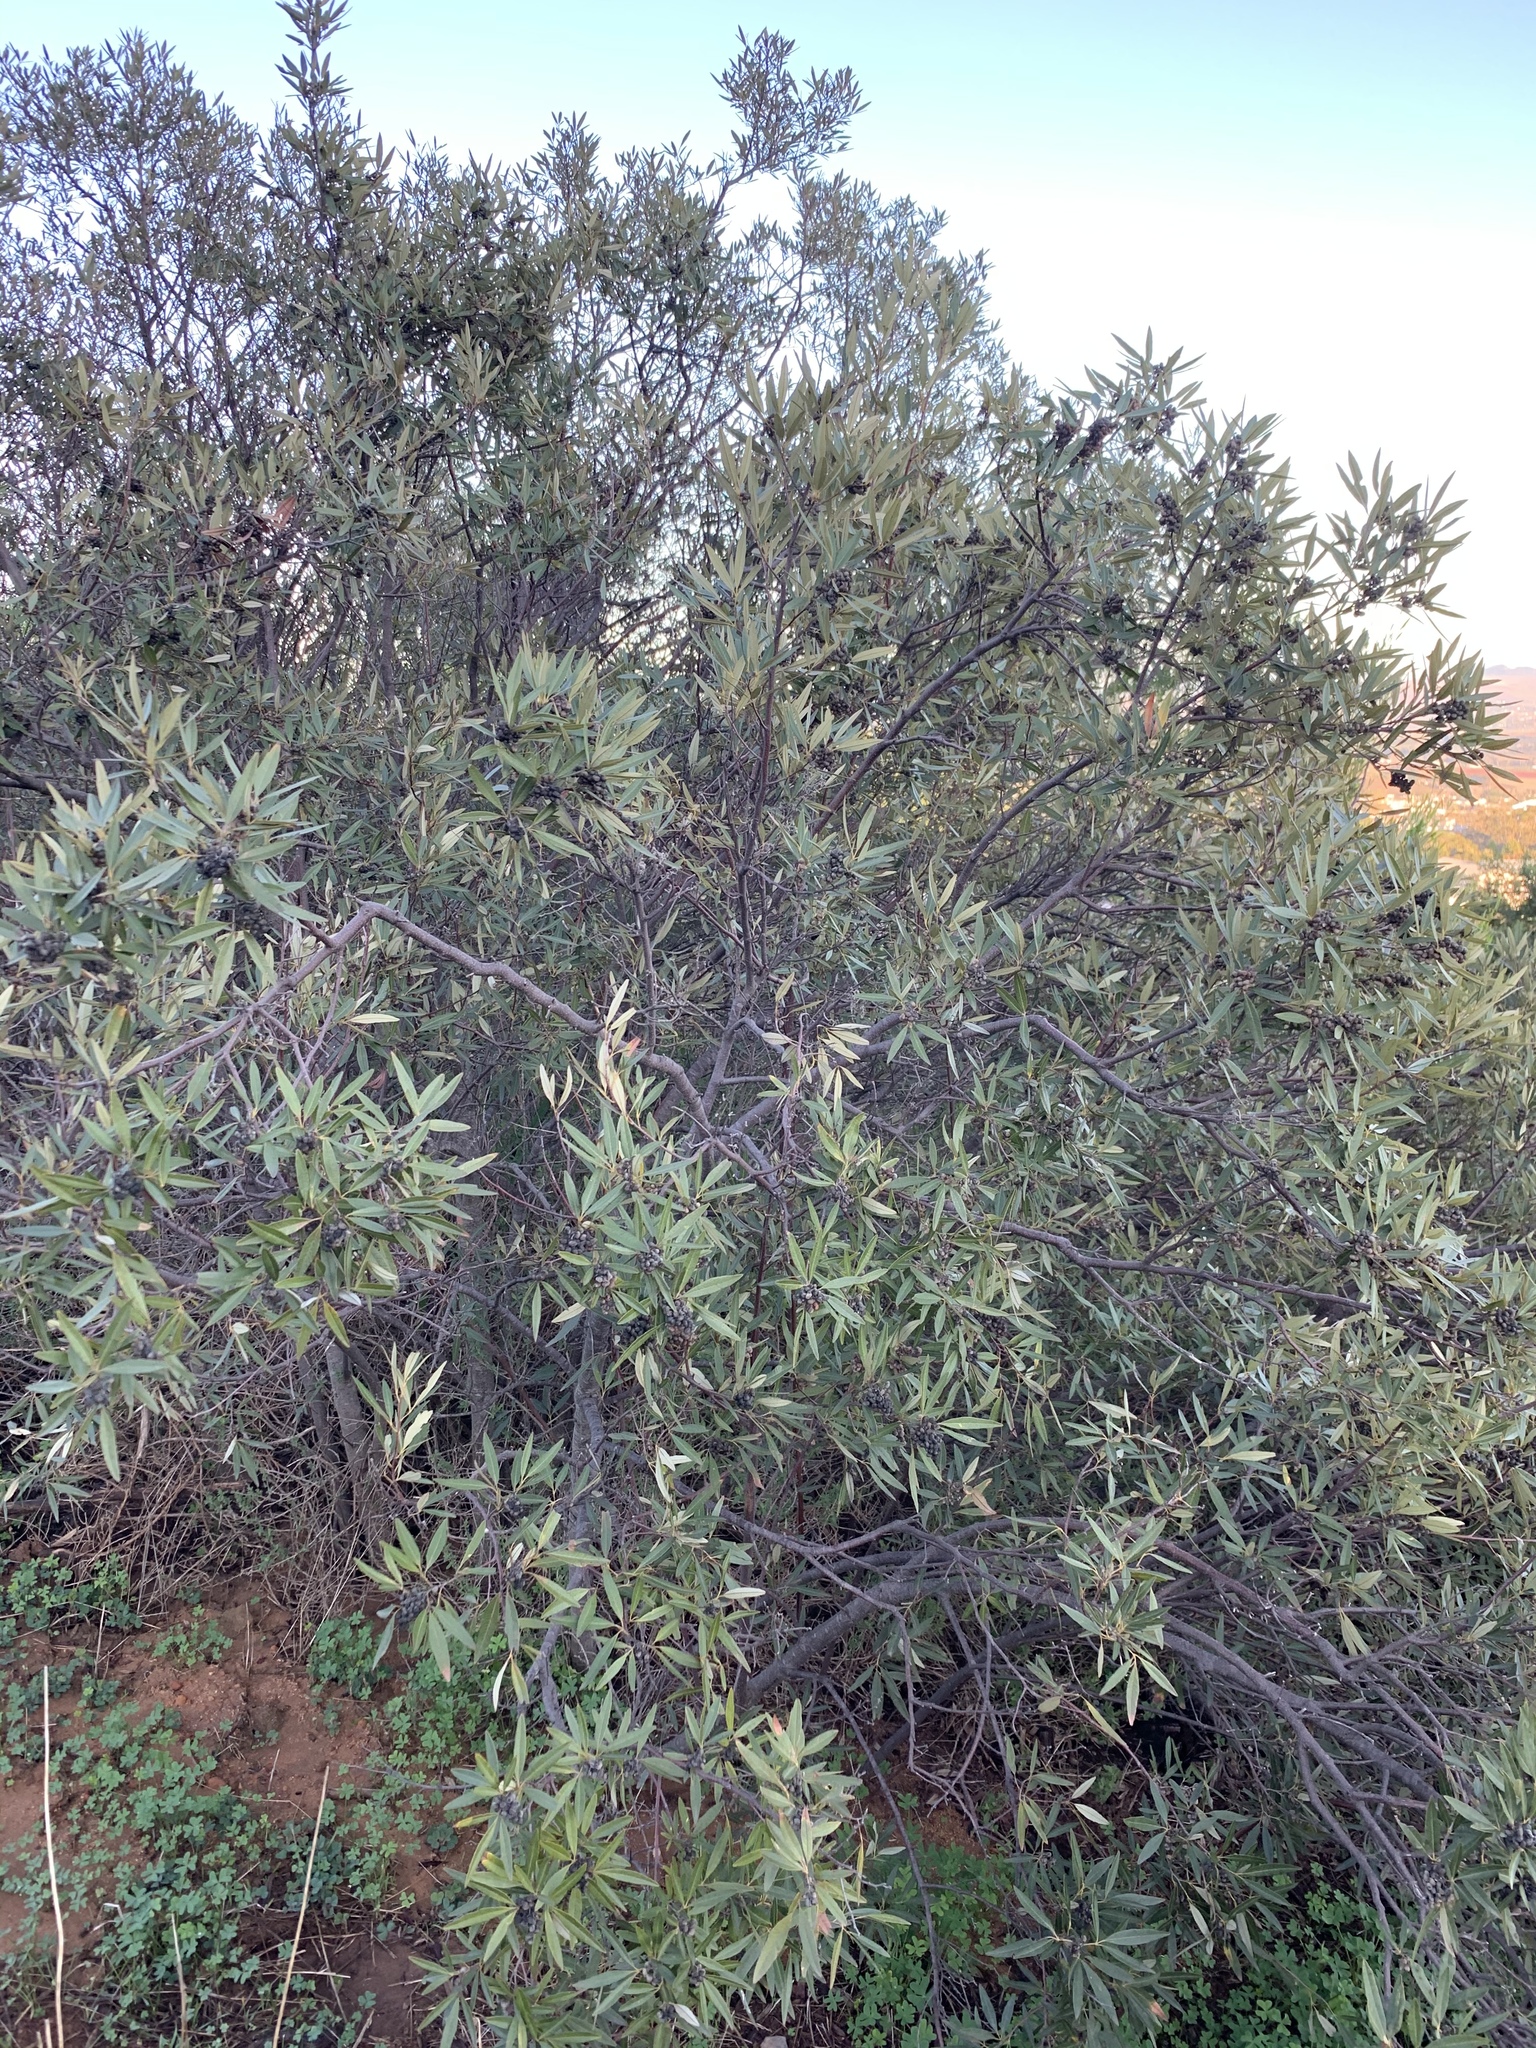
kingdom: Plantae
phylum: Tracheophyta
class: Magnoliopsida
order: Sapindales
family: Anacardiaceae
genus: Searsia
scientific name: Searsia angustifolia
